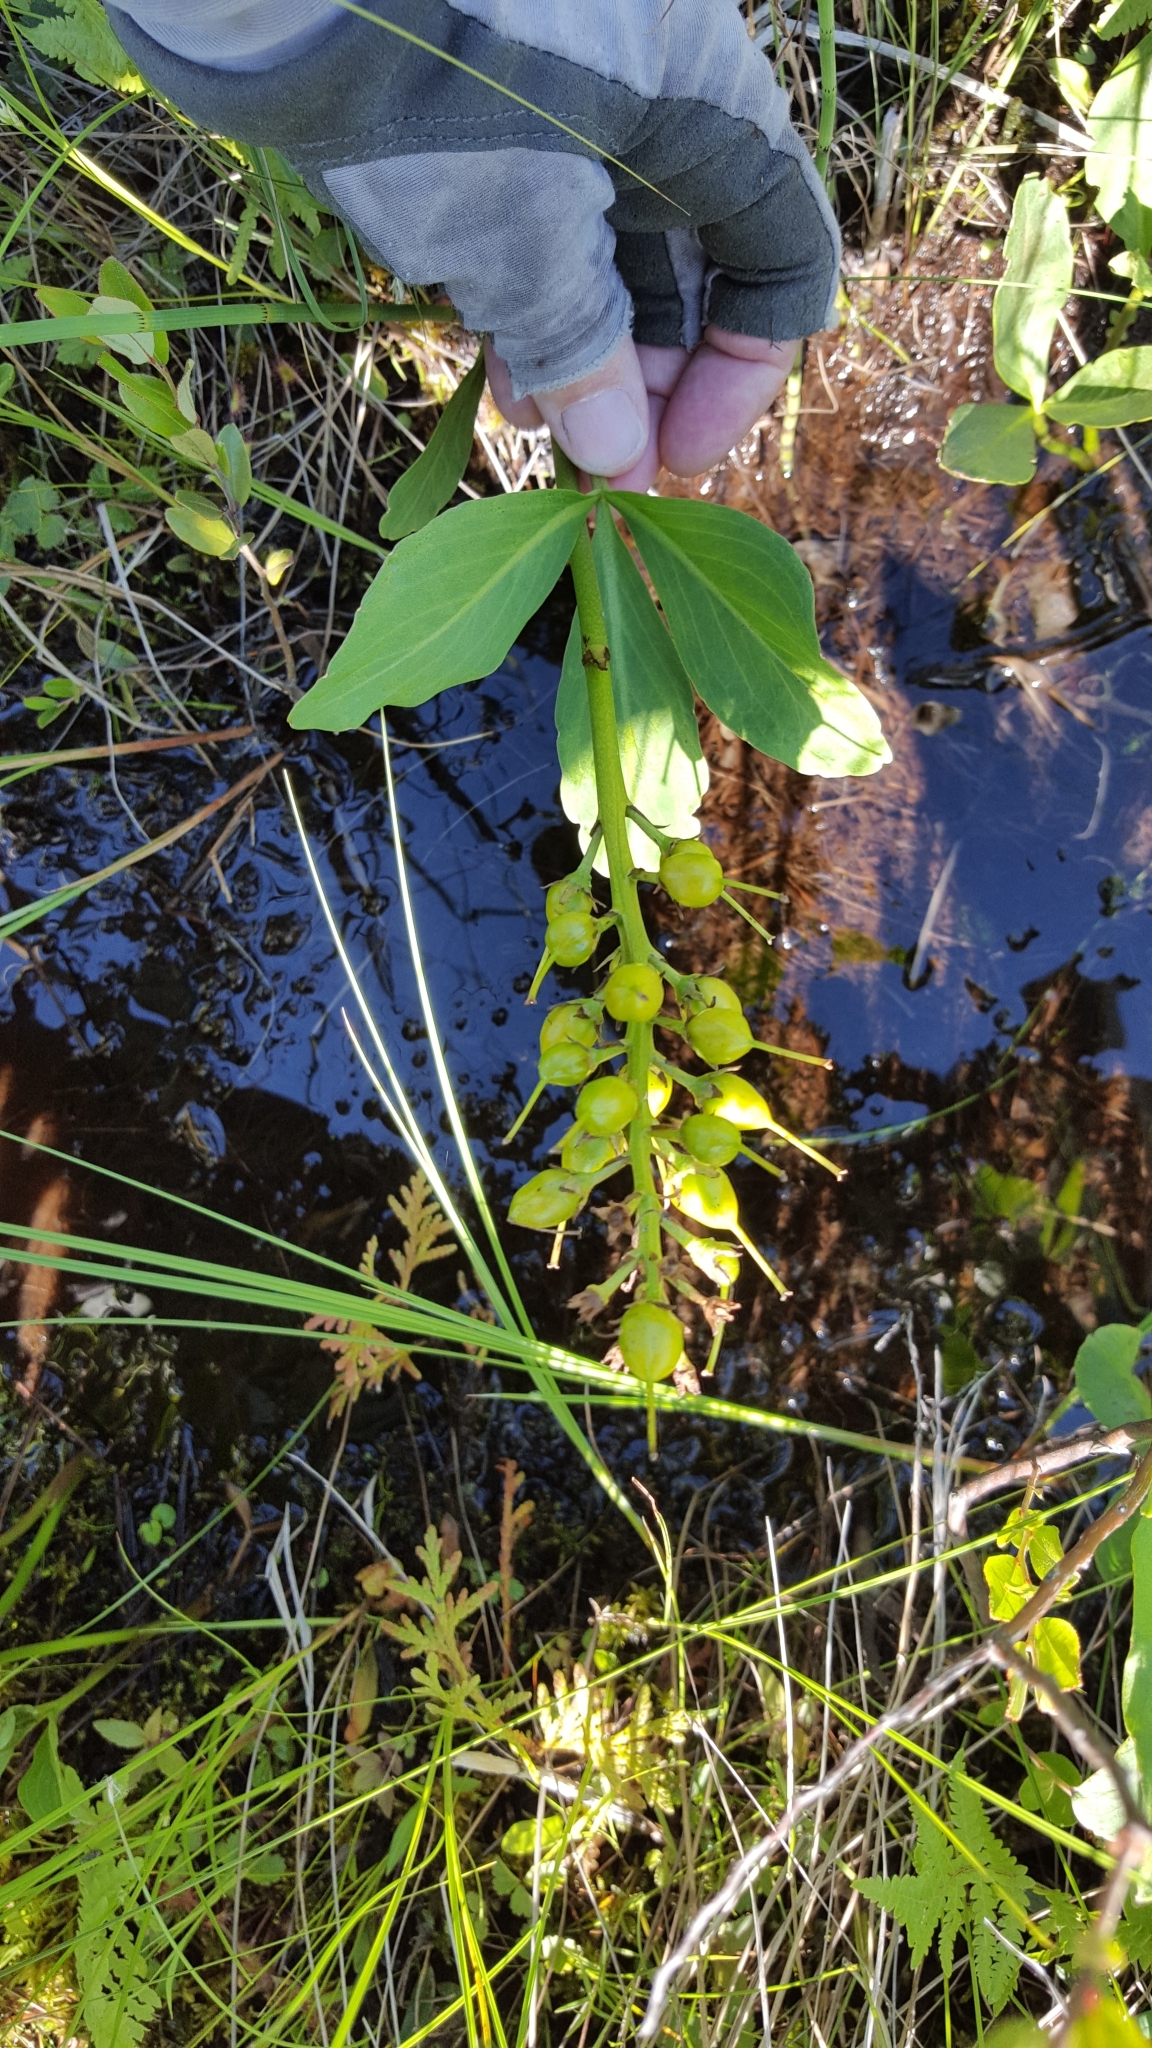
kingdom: Plantae
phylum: Tracheophyta
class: Magnoliopsida
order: Asterales
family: Menyanthaceae
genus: Menyanthes
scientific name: Menyanthes trifoliata
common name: Bogbean
